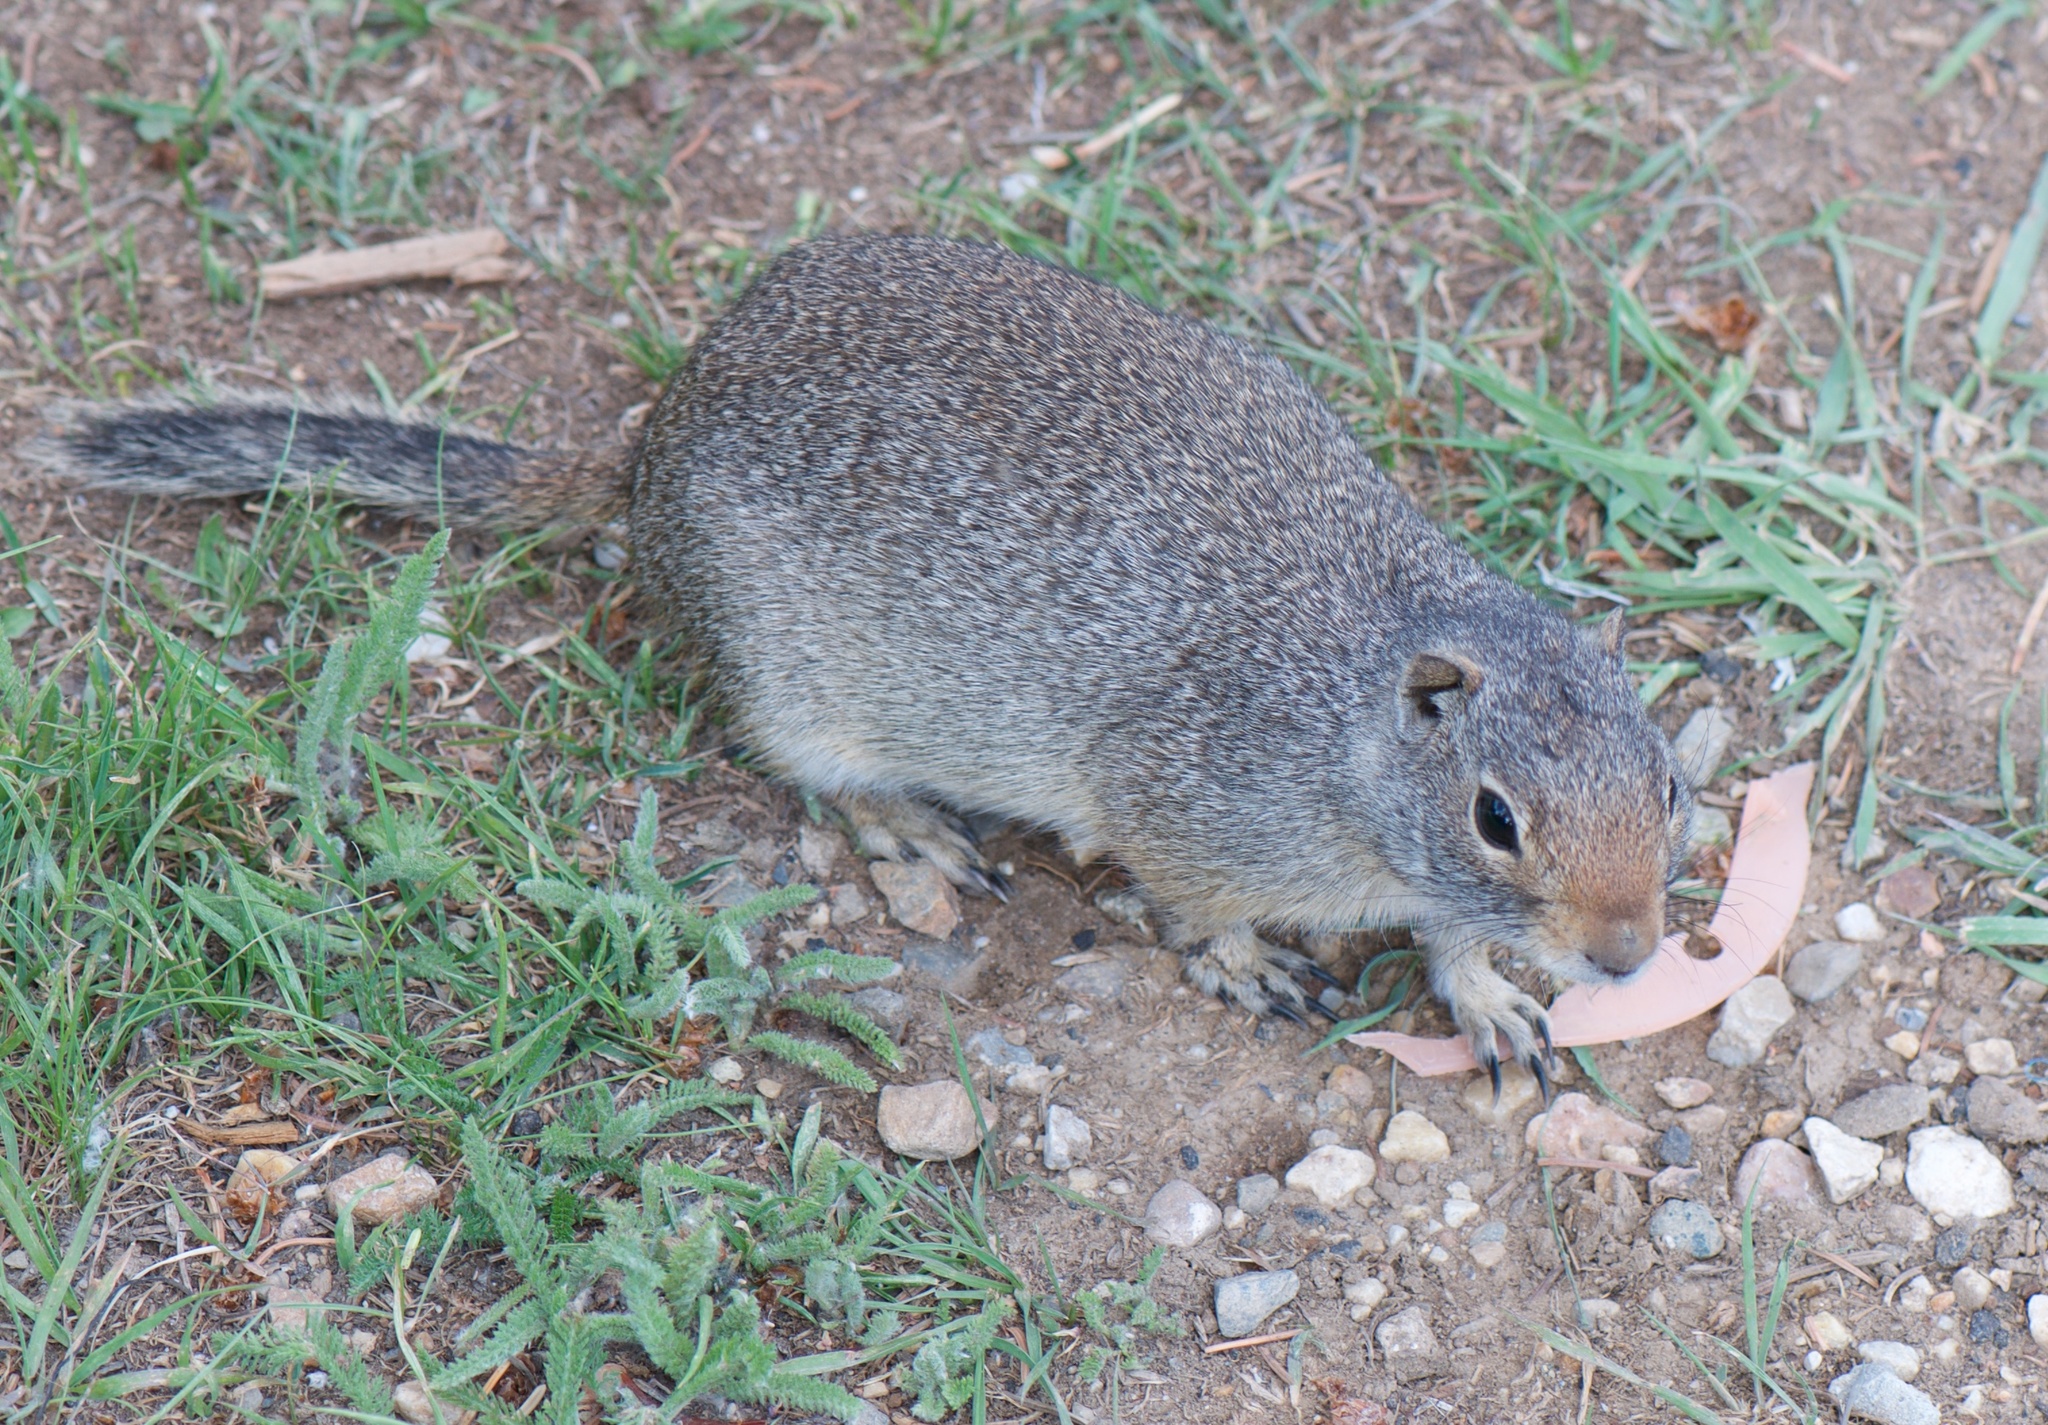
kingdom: Animalia
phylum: Chordata
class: Mammalia
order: Rodentia
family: Sciuridae
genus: Urocitellus
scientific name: Urocitellus armatus
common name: Uinta ground squirrel
